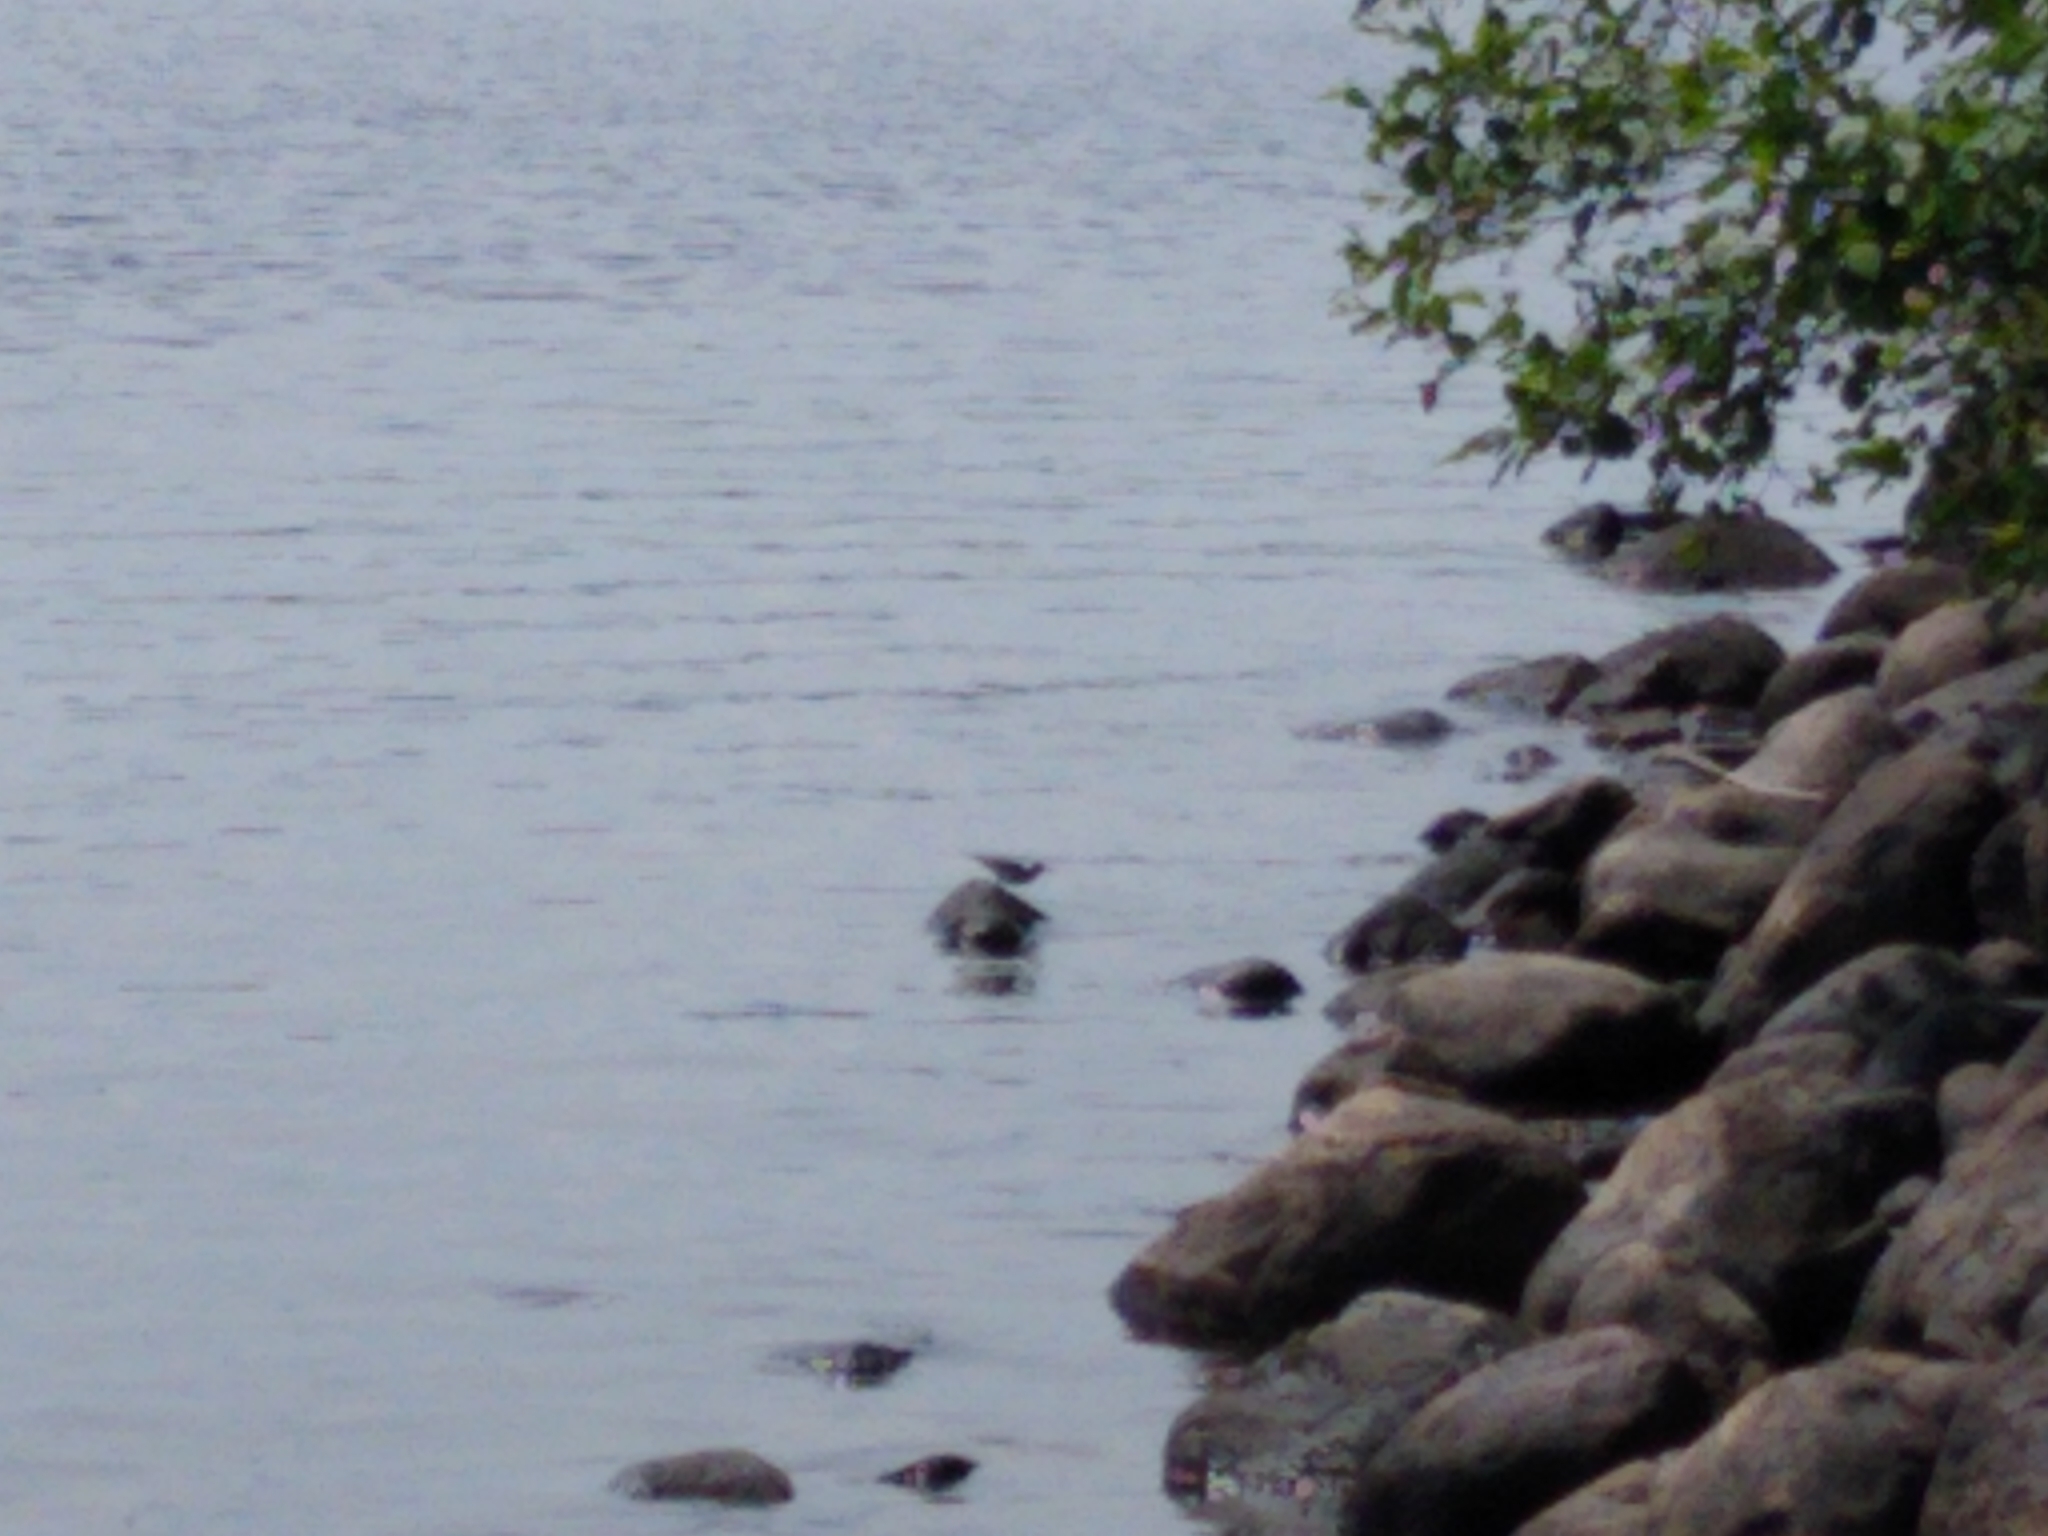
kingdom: Animalia
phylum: Chordata
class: Aves
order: Charadriiformes
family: Scolopacidae
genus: Actitis
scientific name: Actitis macularius
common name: Spotted sandpiper
